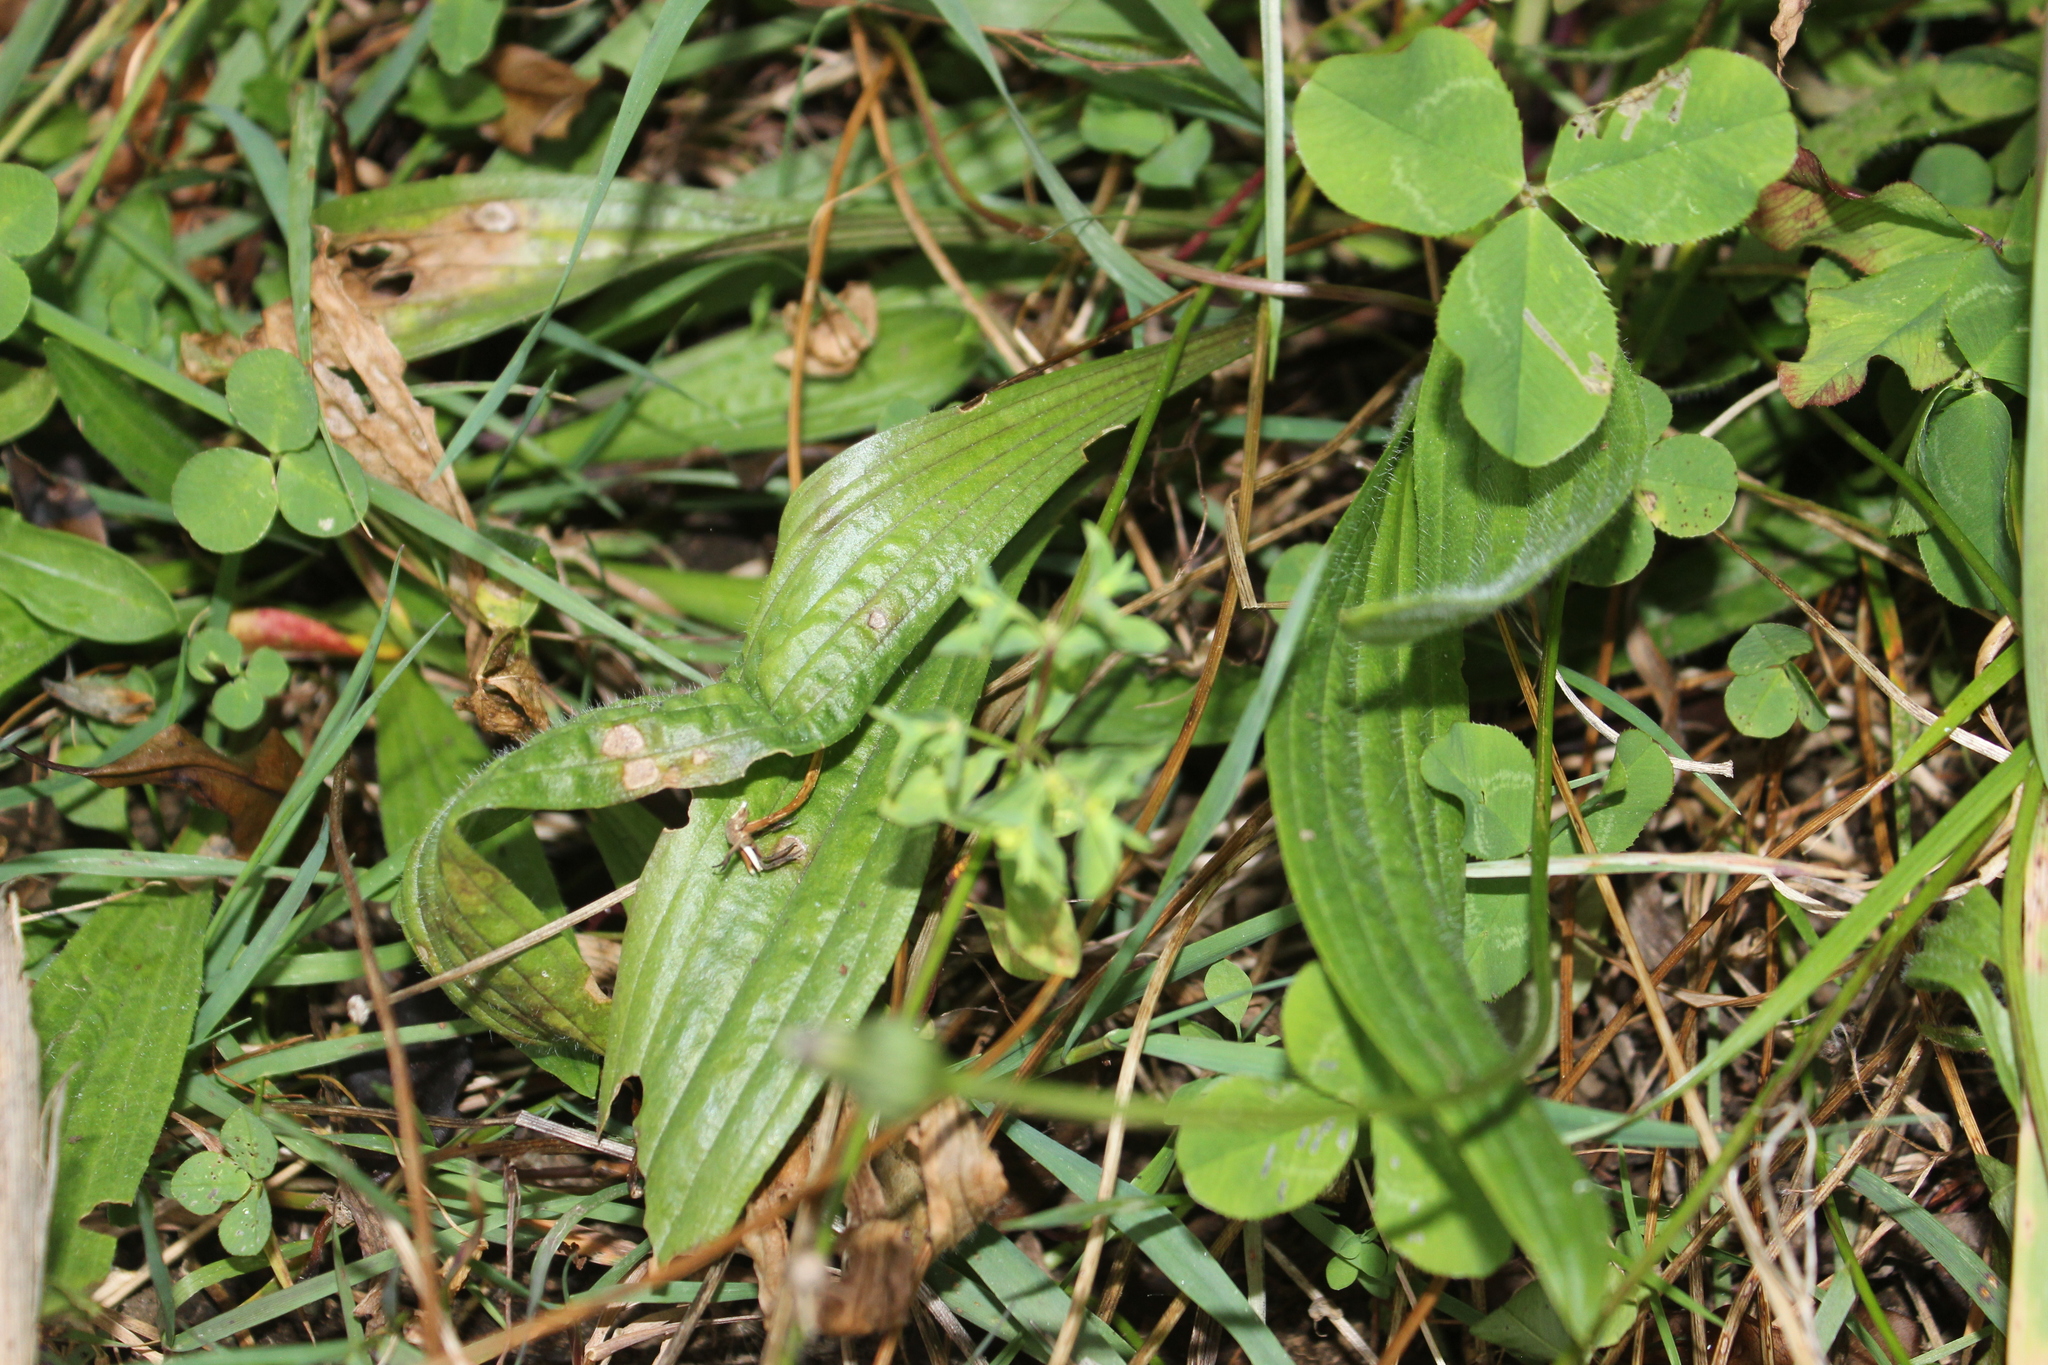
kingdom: Plantae
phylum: Tracheophyta
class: Magnoliopsida
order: Lamiales
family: Plantaginaceae
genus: Plantago
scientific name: Plantago lanceolata
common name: Ribwort plantain
